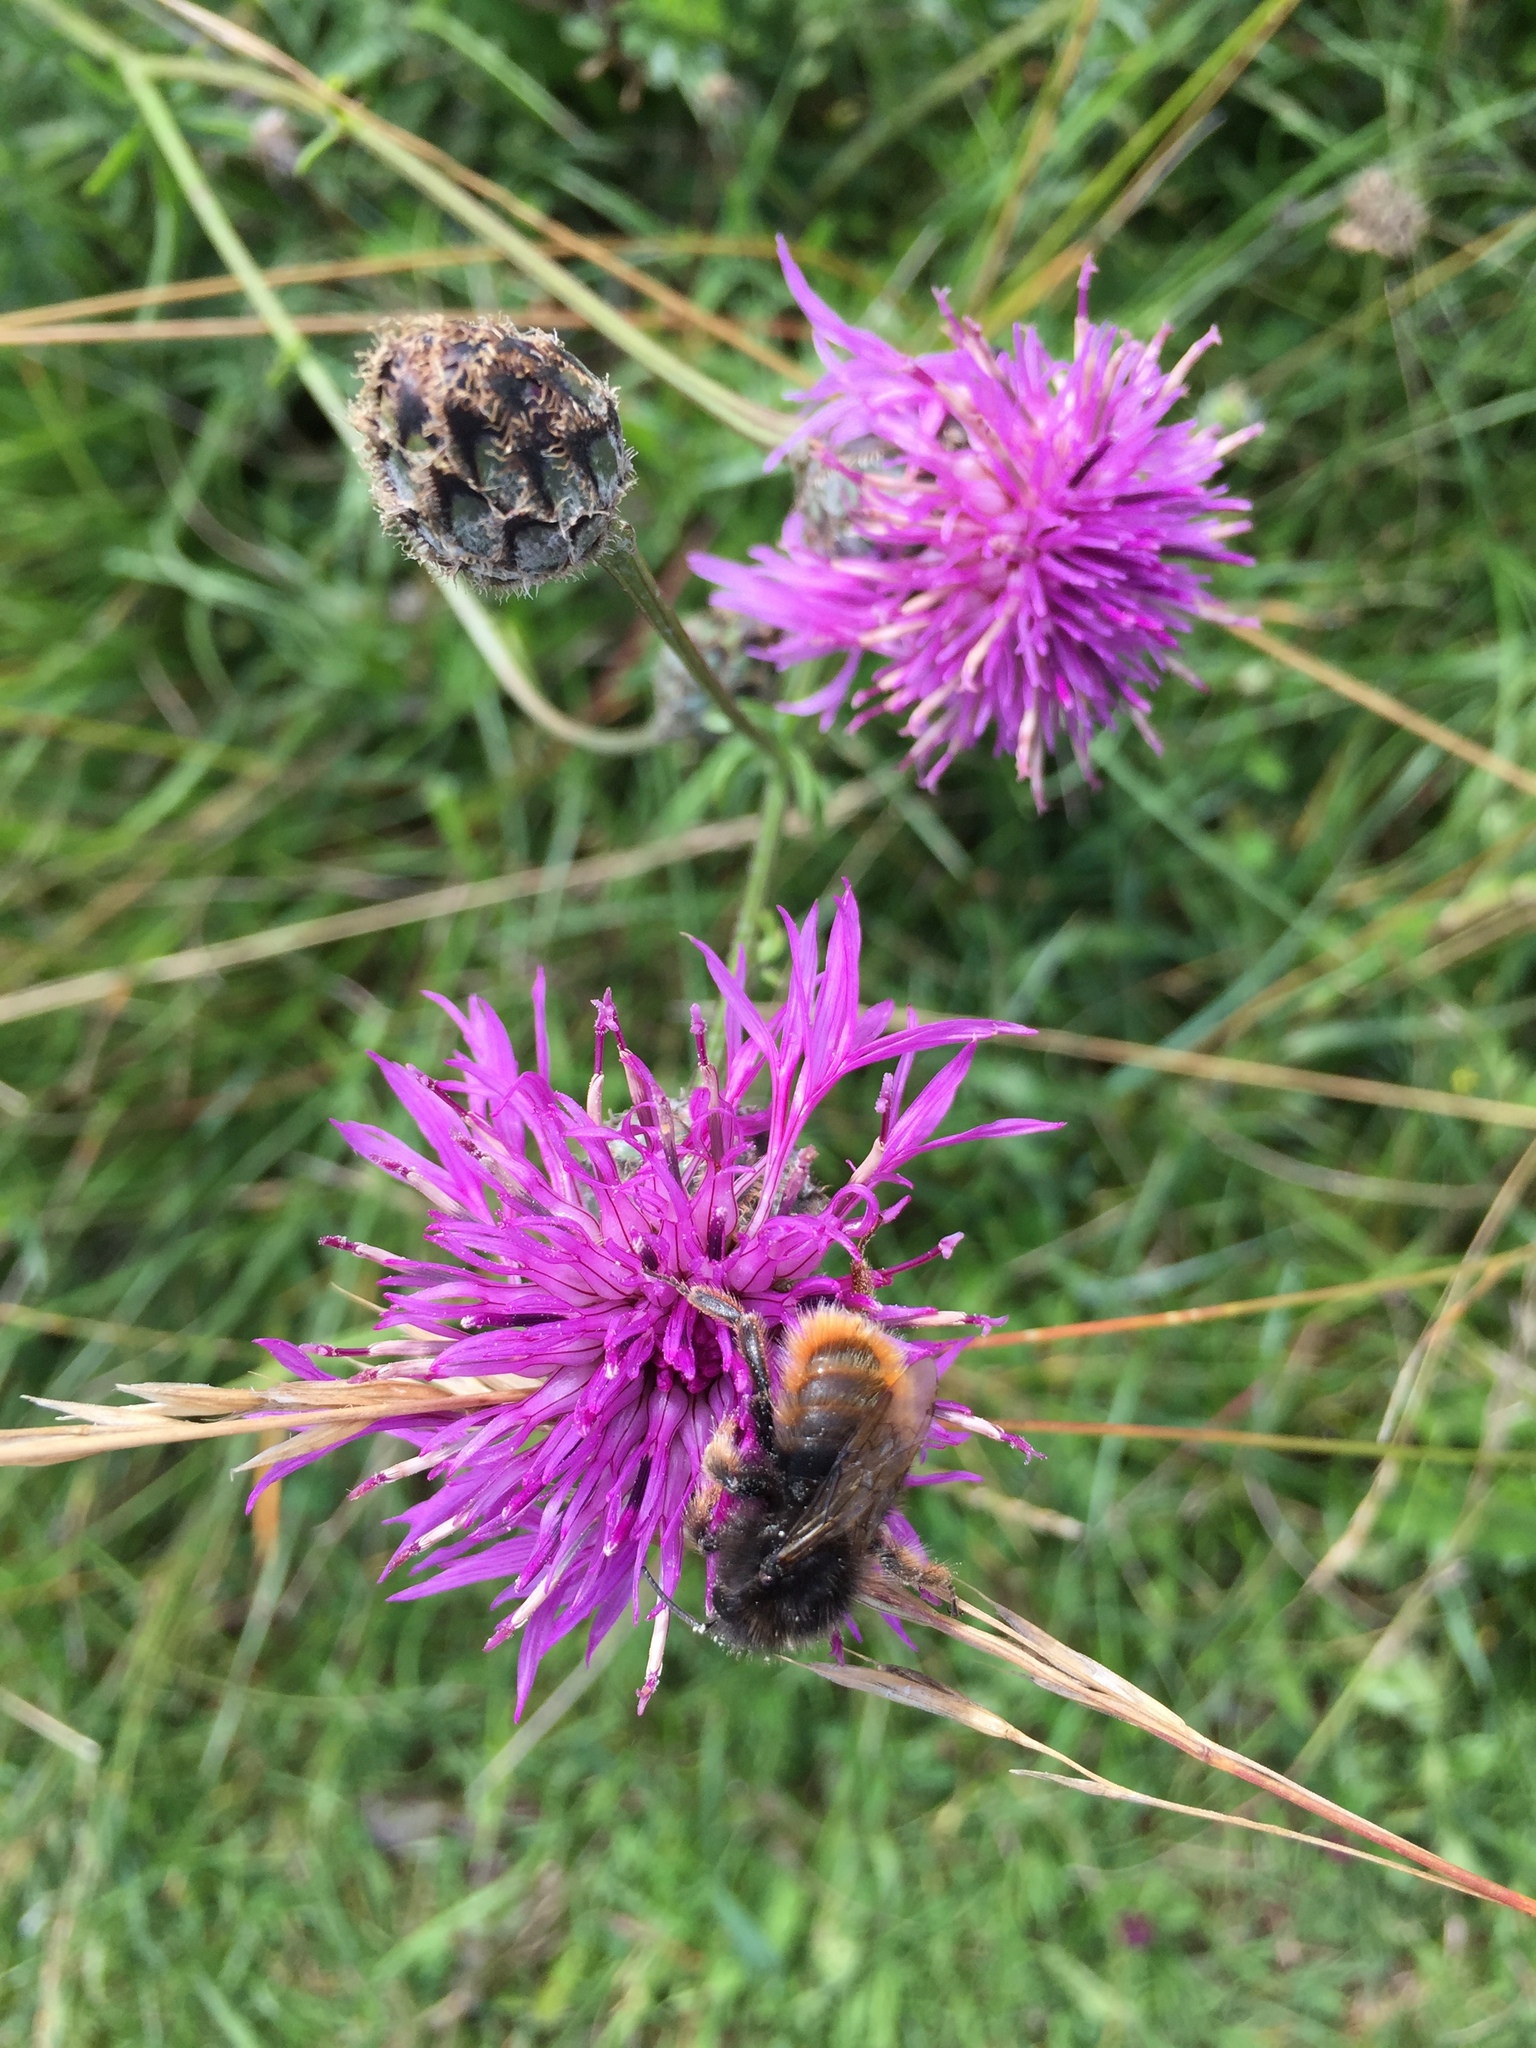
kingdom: Animalia
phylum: Arthropoda
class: Insecta
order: Hymenoptera
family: Apidae
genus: Bombus
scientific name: Bombus rupestris
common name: Hill cuckoo-bee
